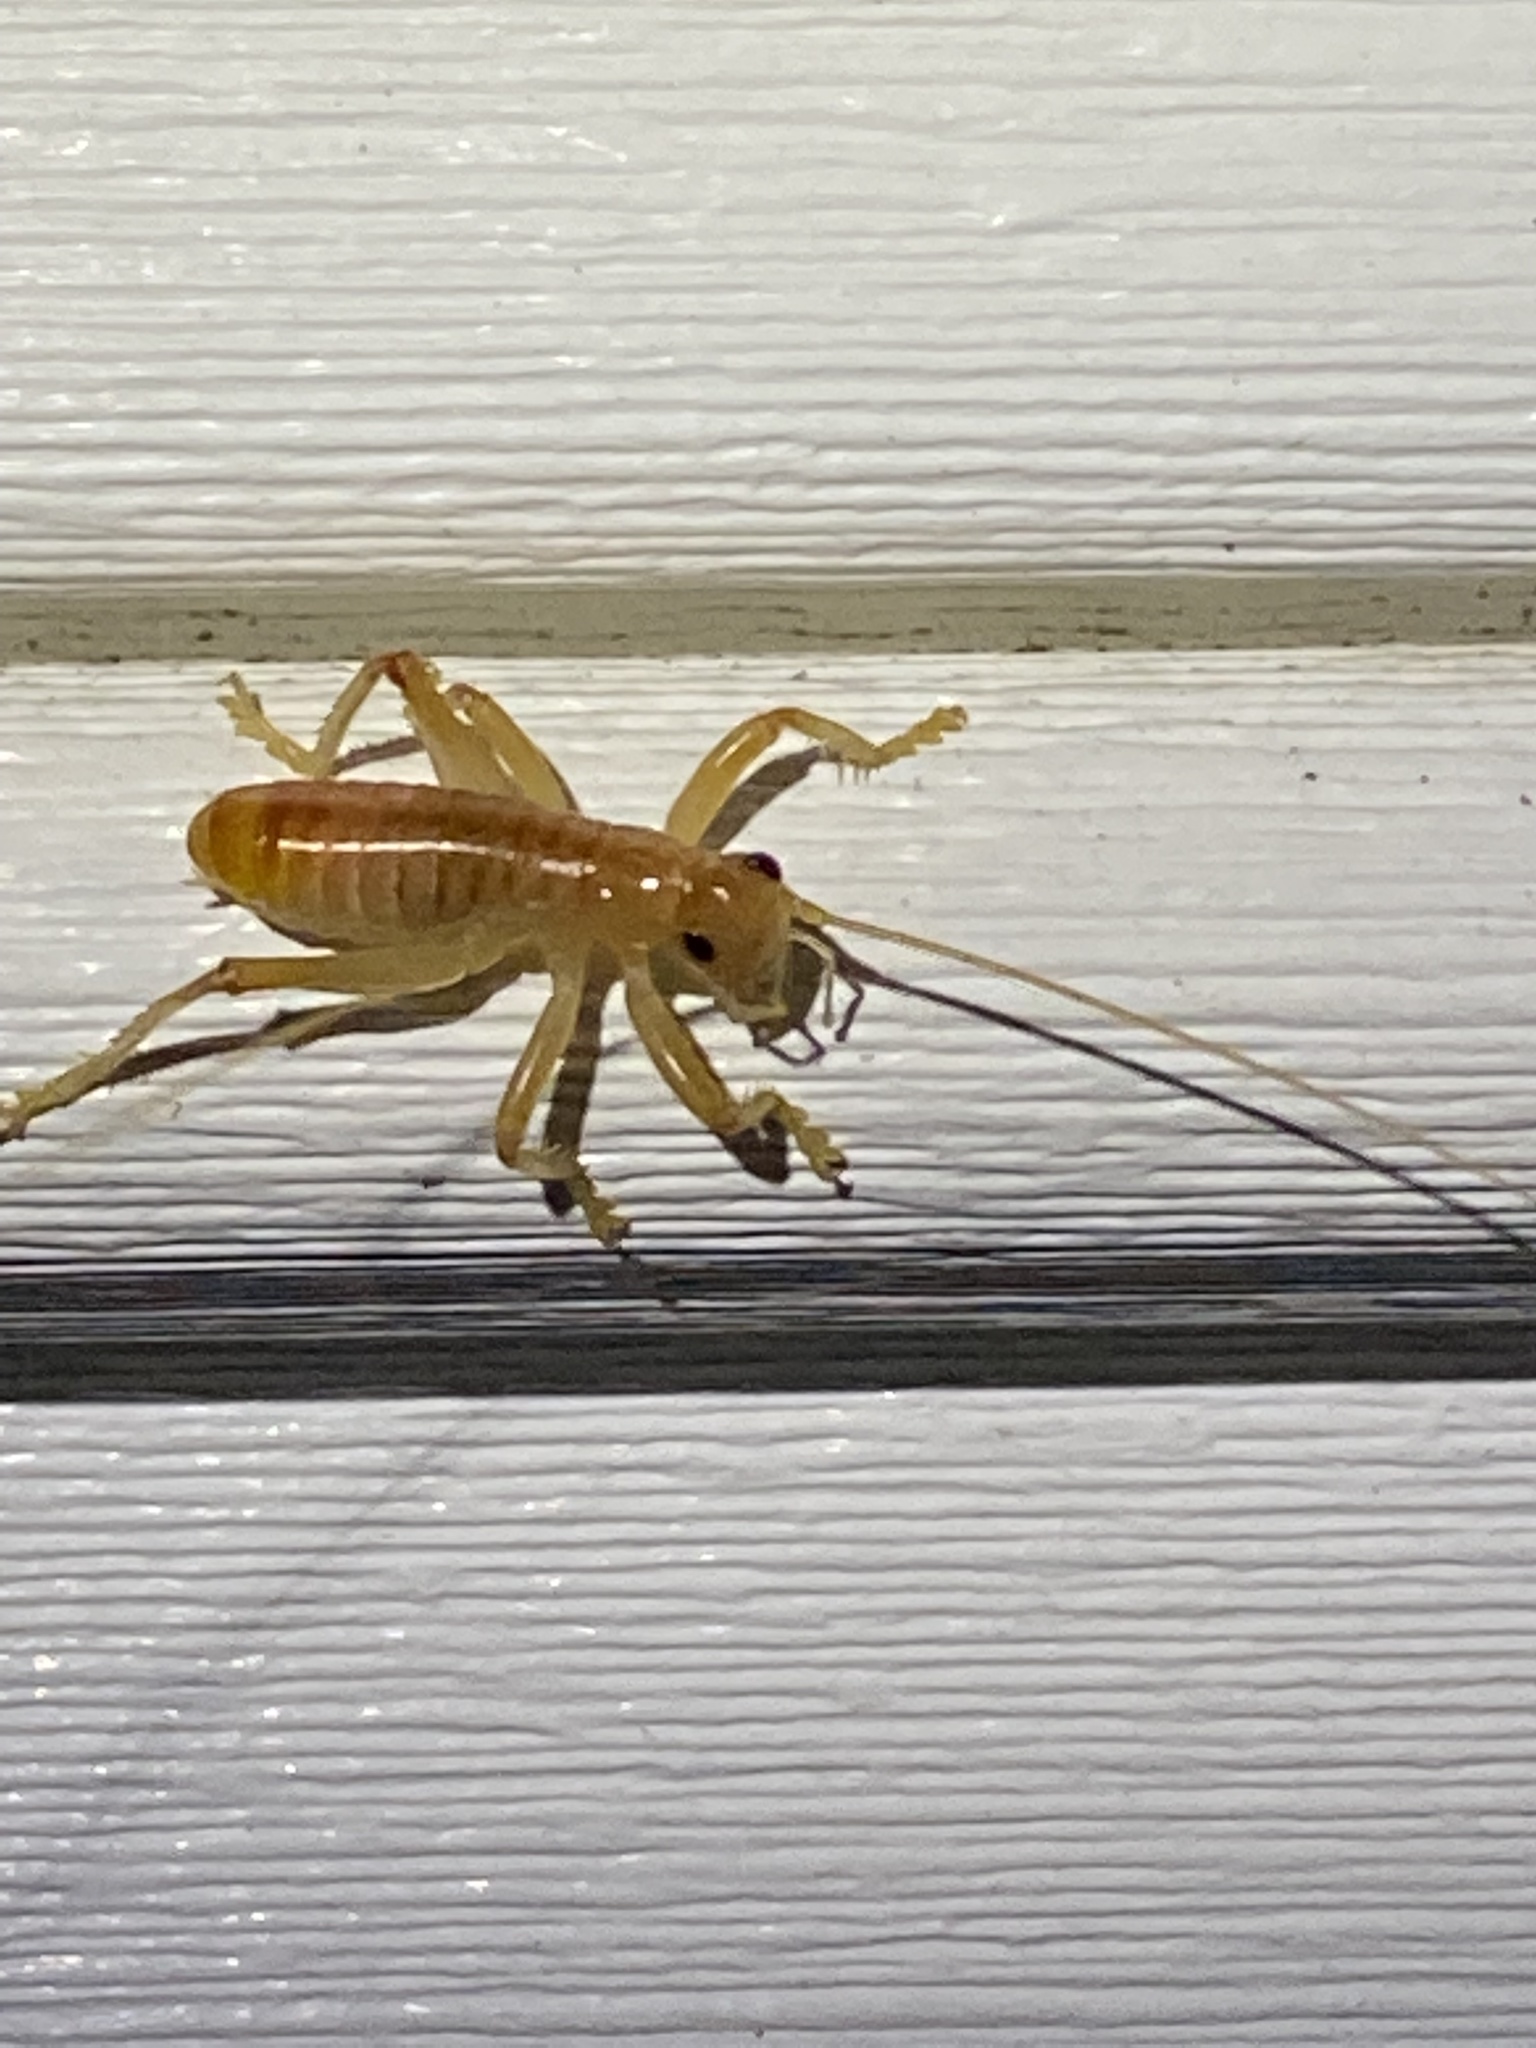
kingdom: Animalia
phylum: Arthropoda
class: Insecta
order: Orthoptera
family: Gryllacrididae
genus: Camptonotus
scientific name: Camptonotus carolinensis
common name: Carolina leaf-roller
